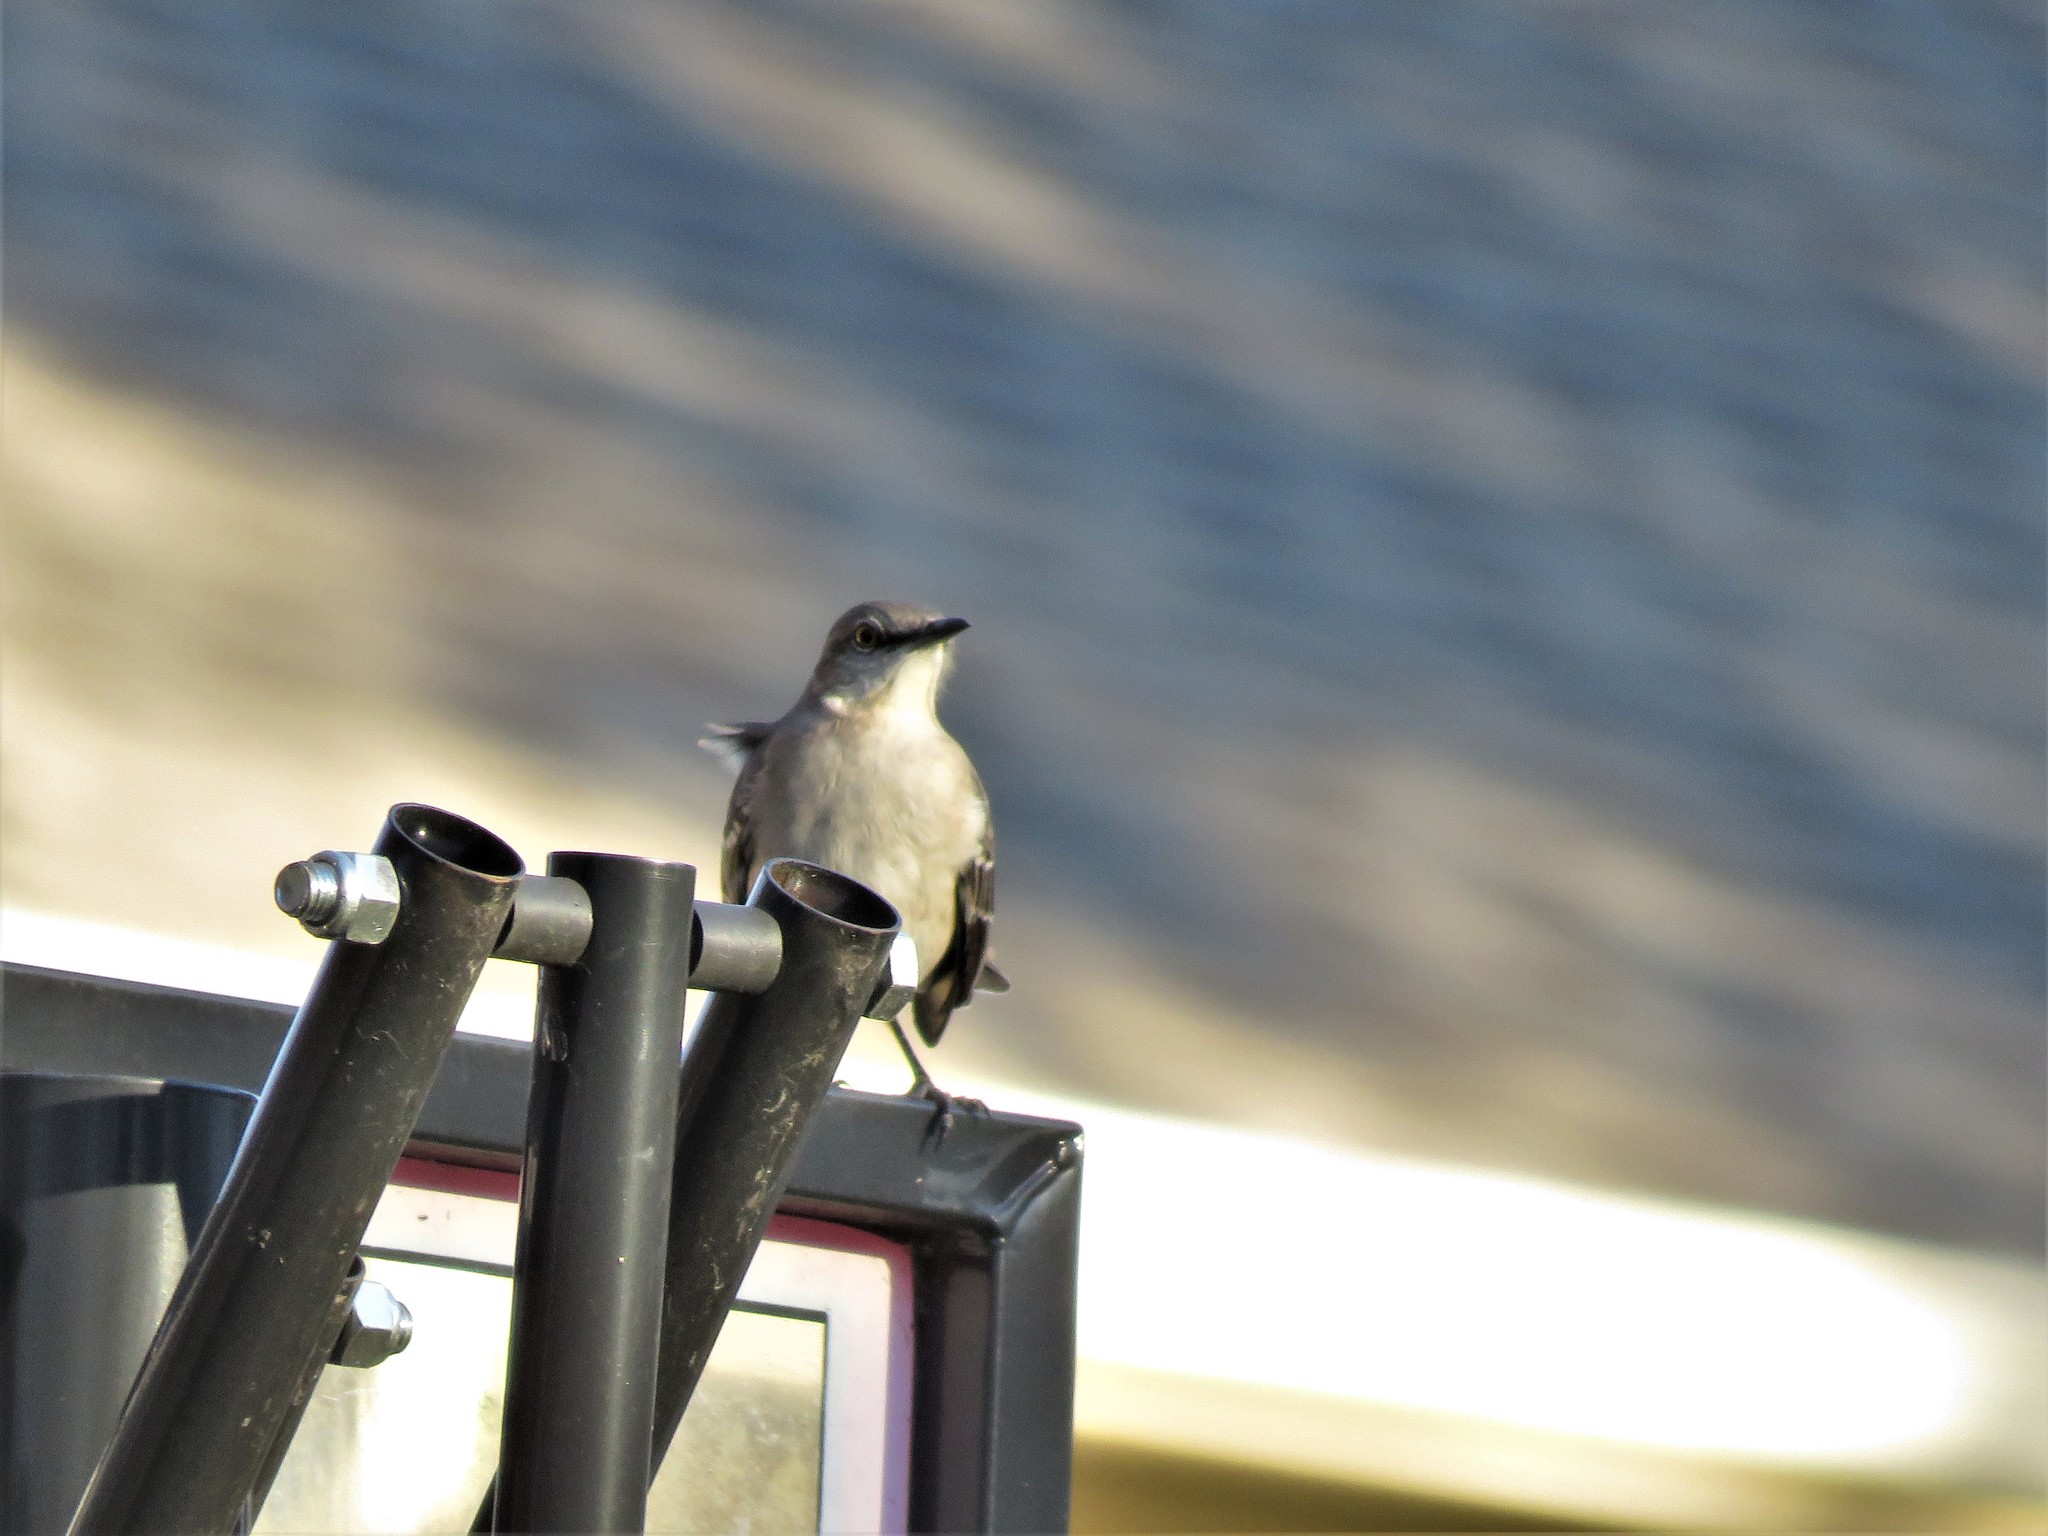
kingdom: Animalia
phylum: Chordata
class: Aves
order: Passeriformes
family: Mimidae
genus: Mimus
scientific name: Mimus polyglottos
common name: Northern mockingbird
